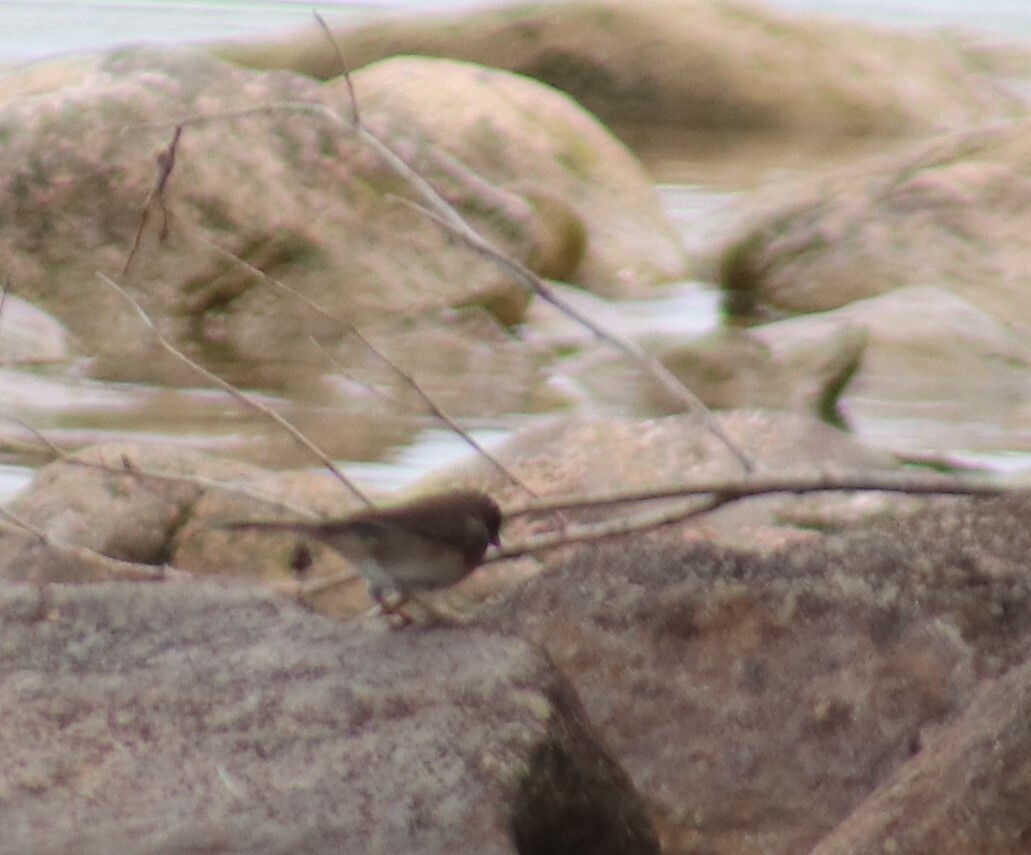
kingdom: Animalia
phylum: Chordata
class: Aves
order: Passeriformes
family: Passerellidae
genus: Junco
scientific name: Junco hyemalis
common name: Dark-eyed junco
